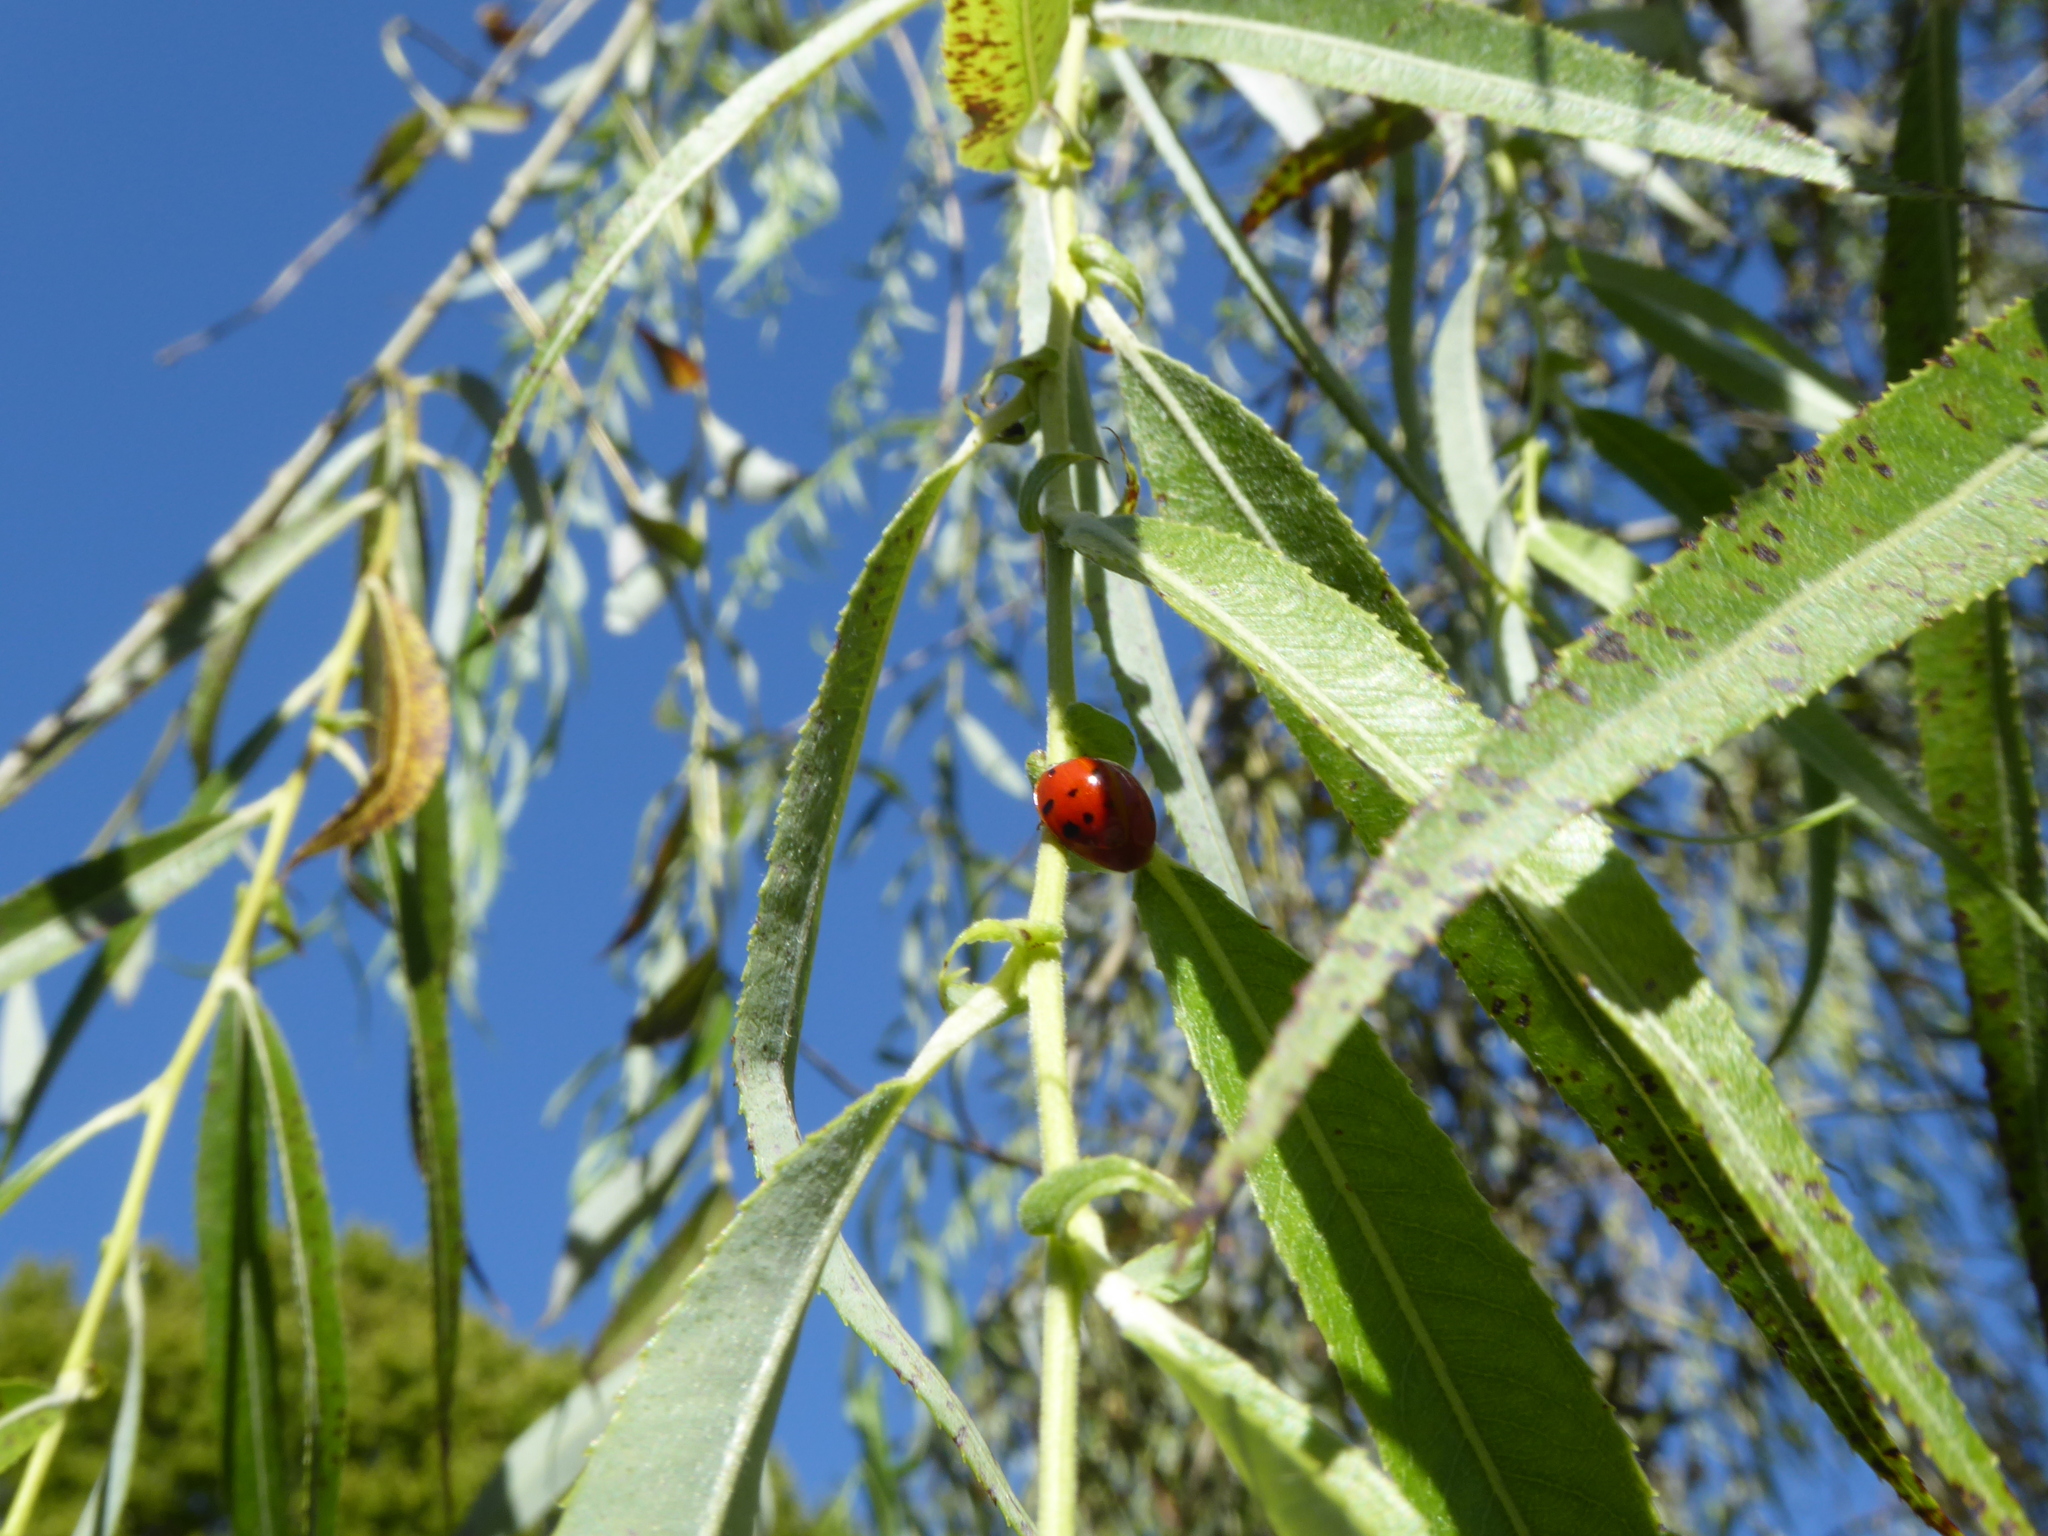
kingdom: Animalia
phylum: Arthropoda
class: Insecta
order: Coleoptera
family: Coccinellidae
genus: Harmonia
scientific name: Harmonia axyridis
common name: Harlequin ladybird
